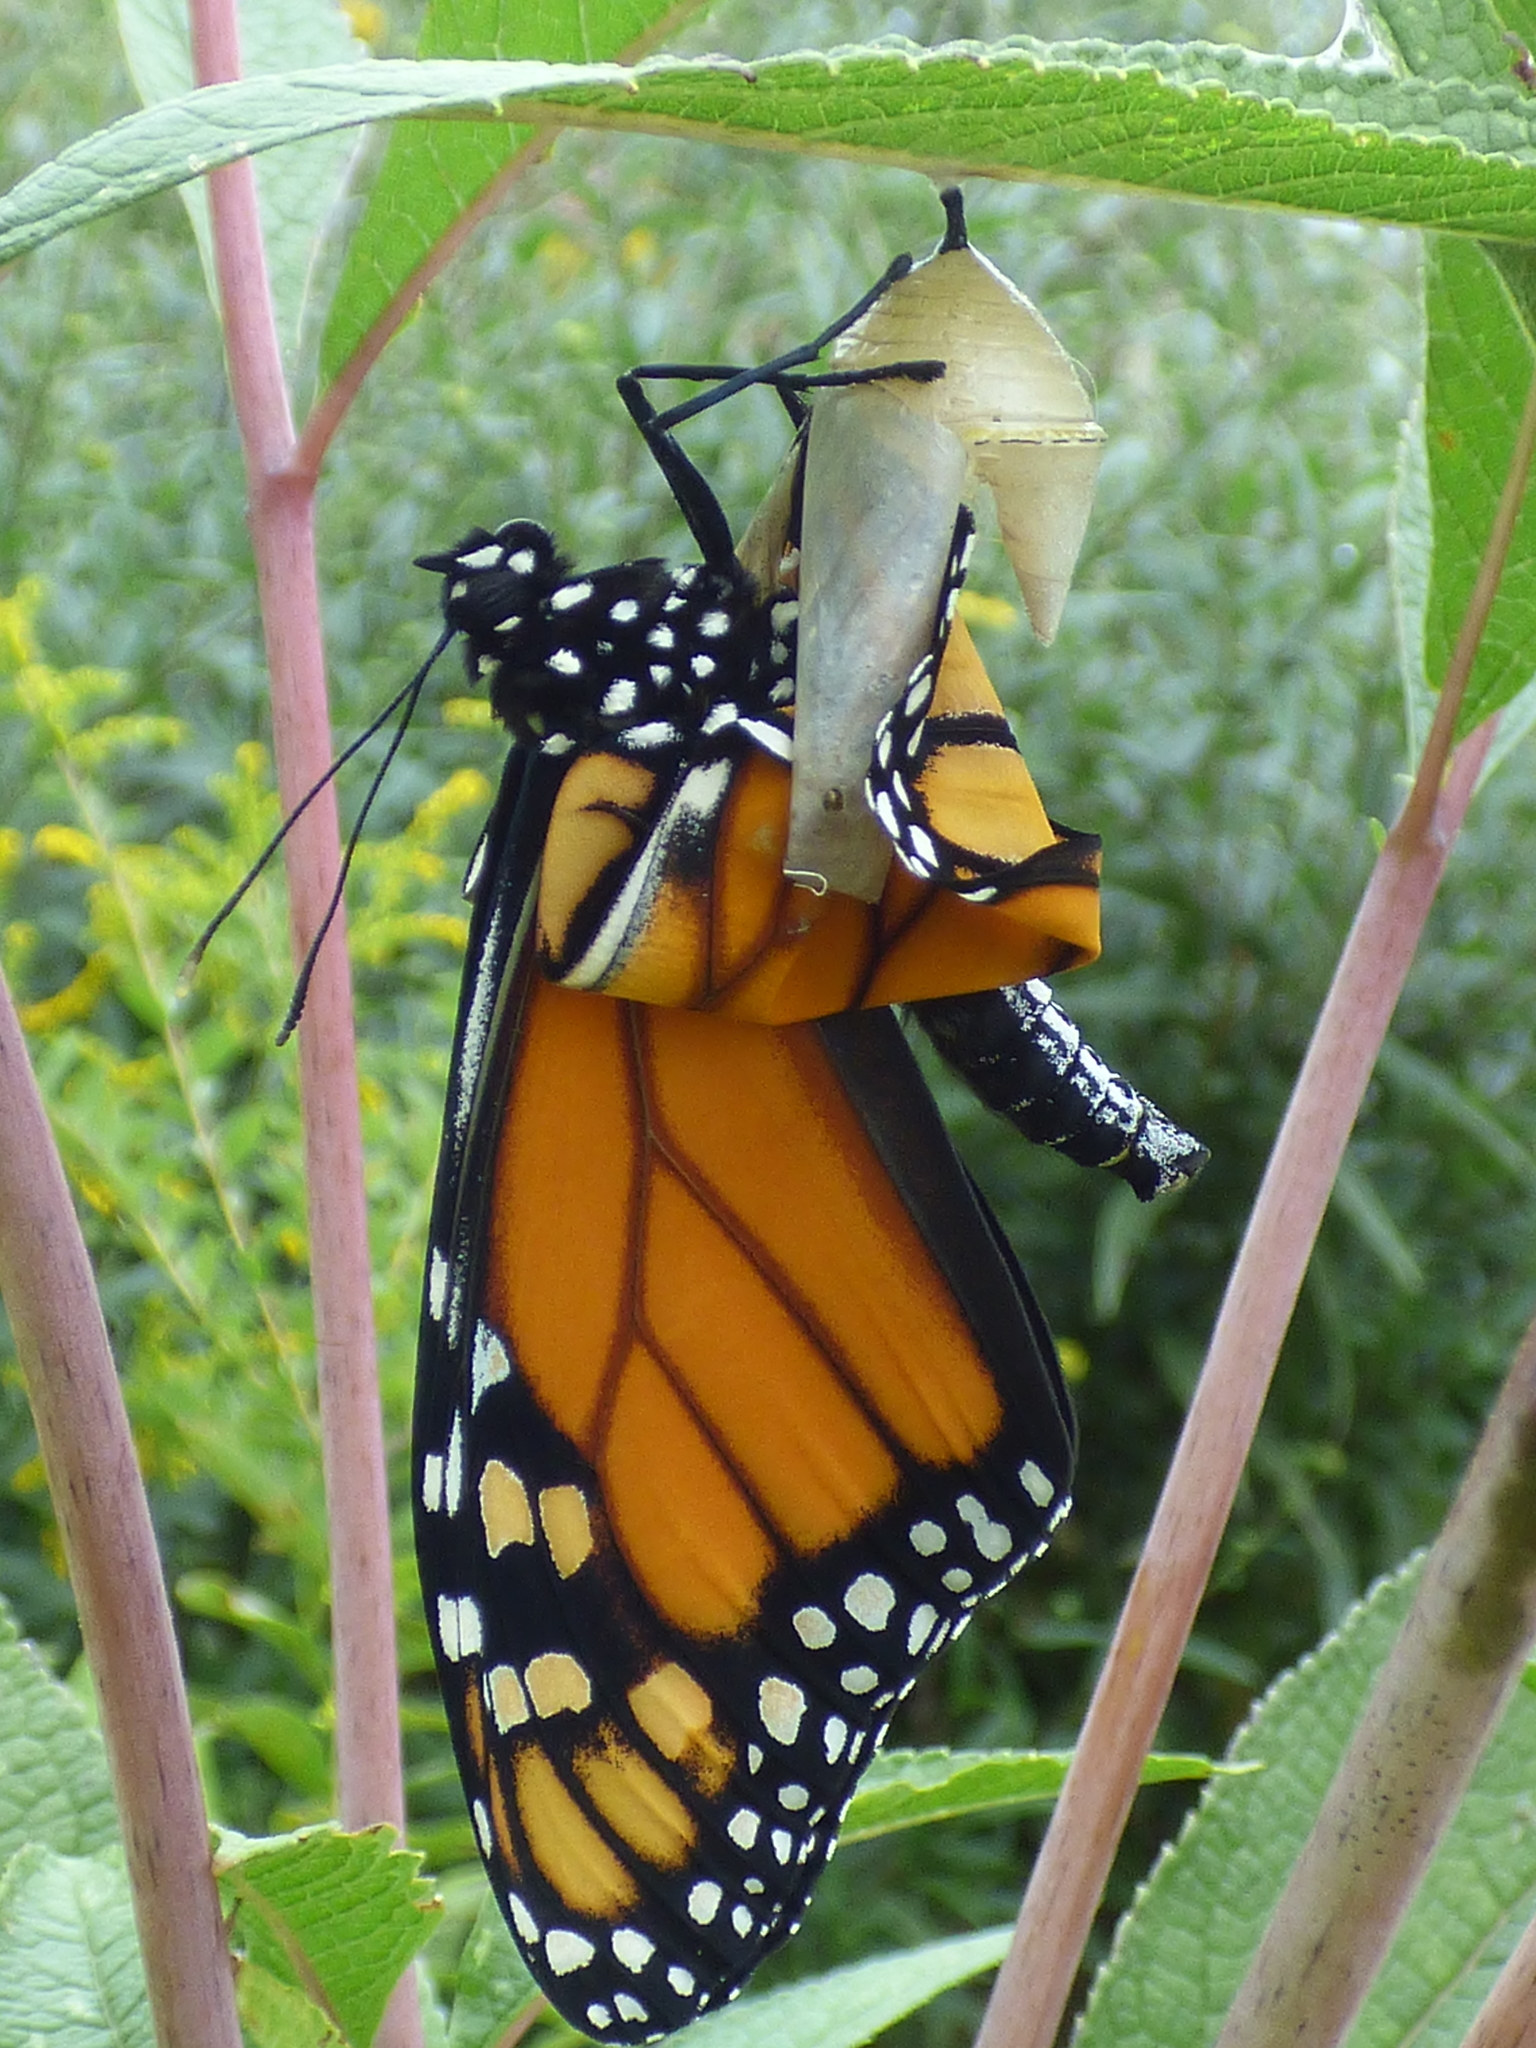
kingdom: Animalia
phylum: Arthropoda
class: Insecta
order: Lepidoptera
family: Nymphalidae
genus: Danaus
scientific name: Danaus plexippus
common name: Monarch
